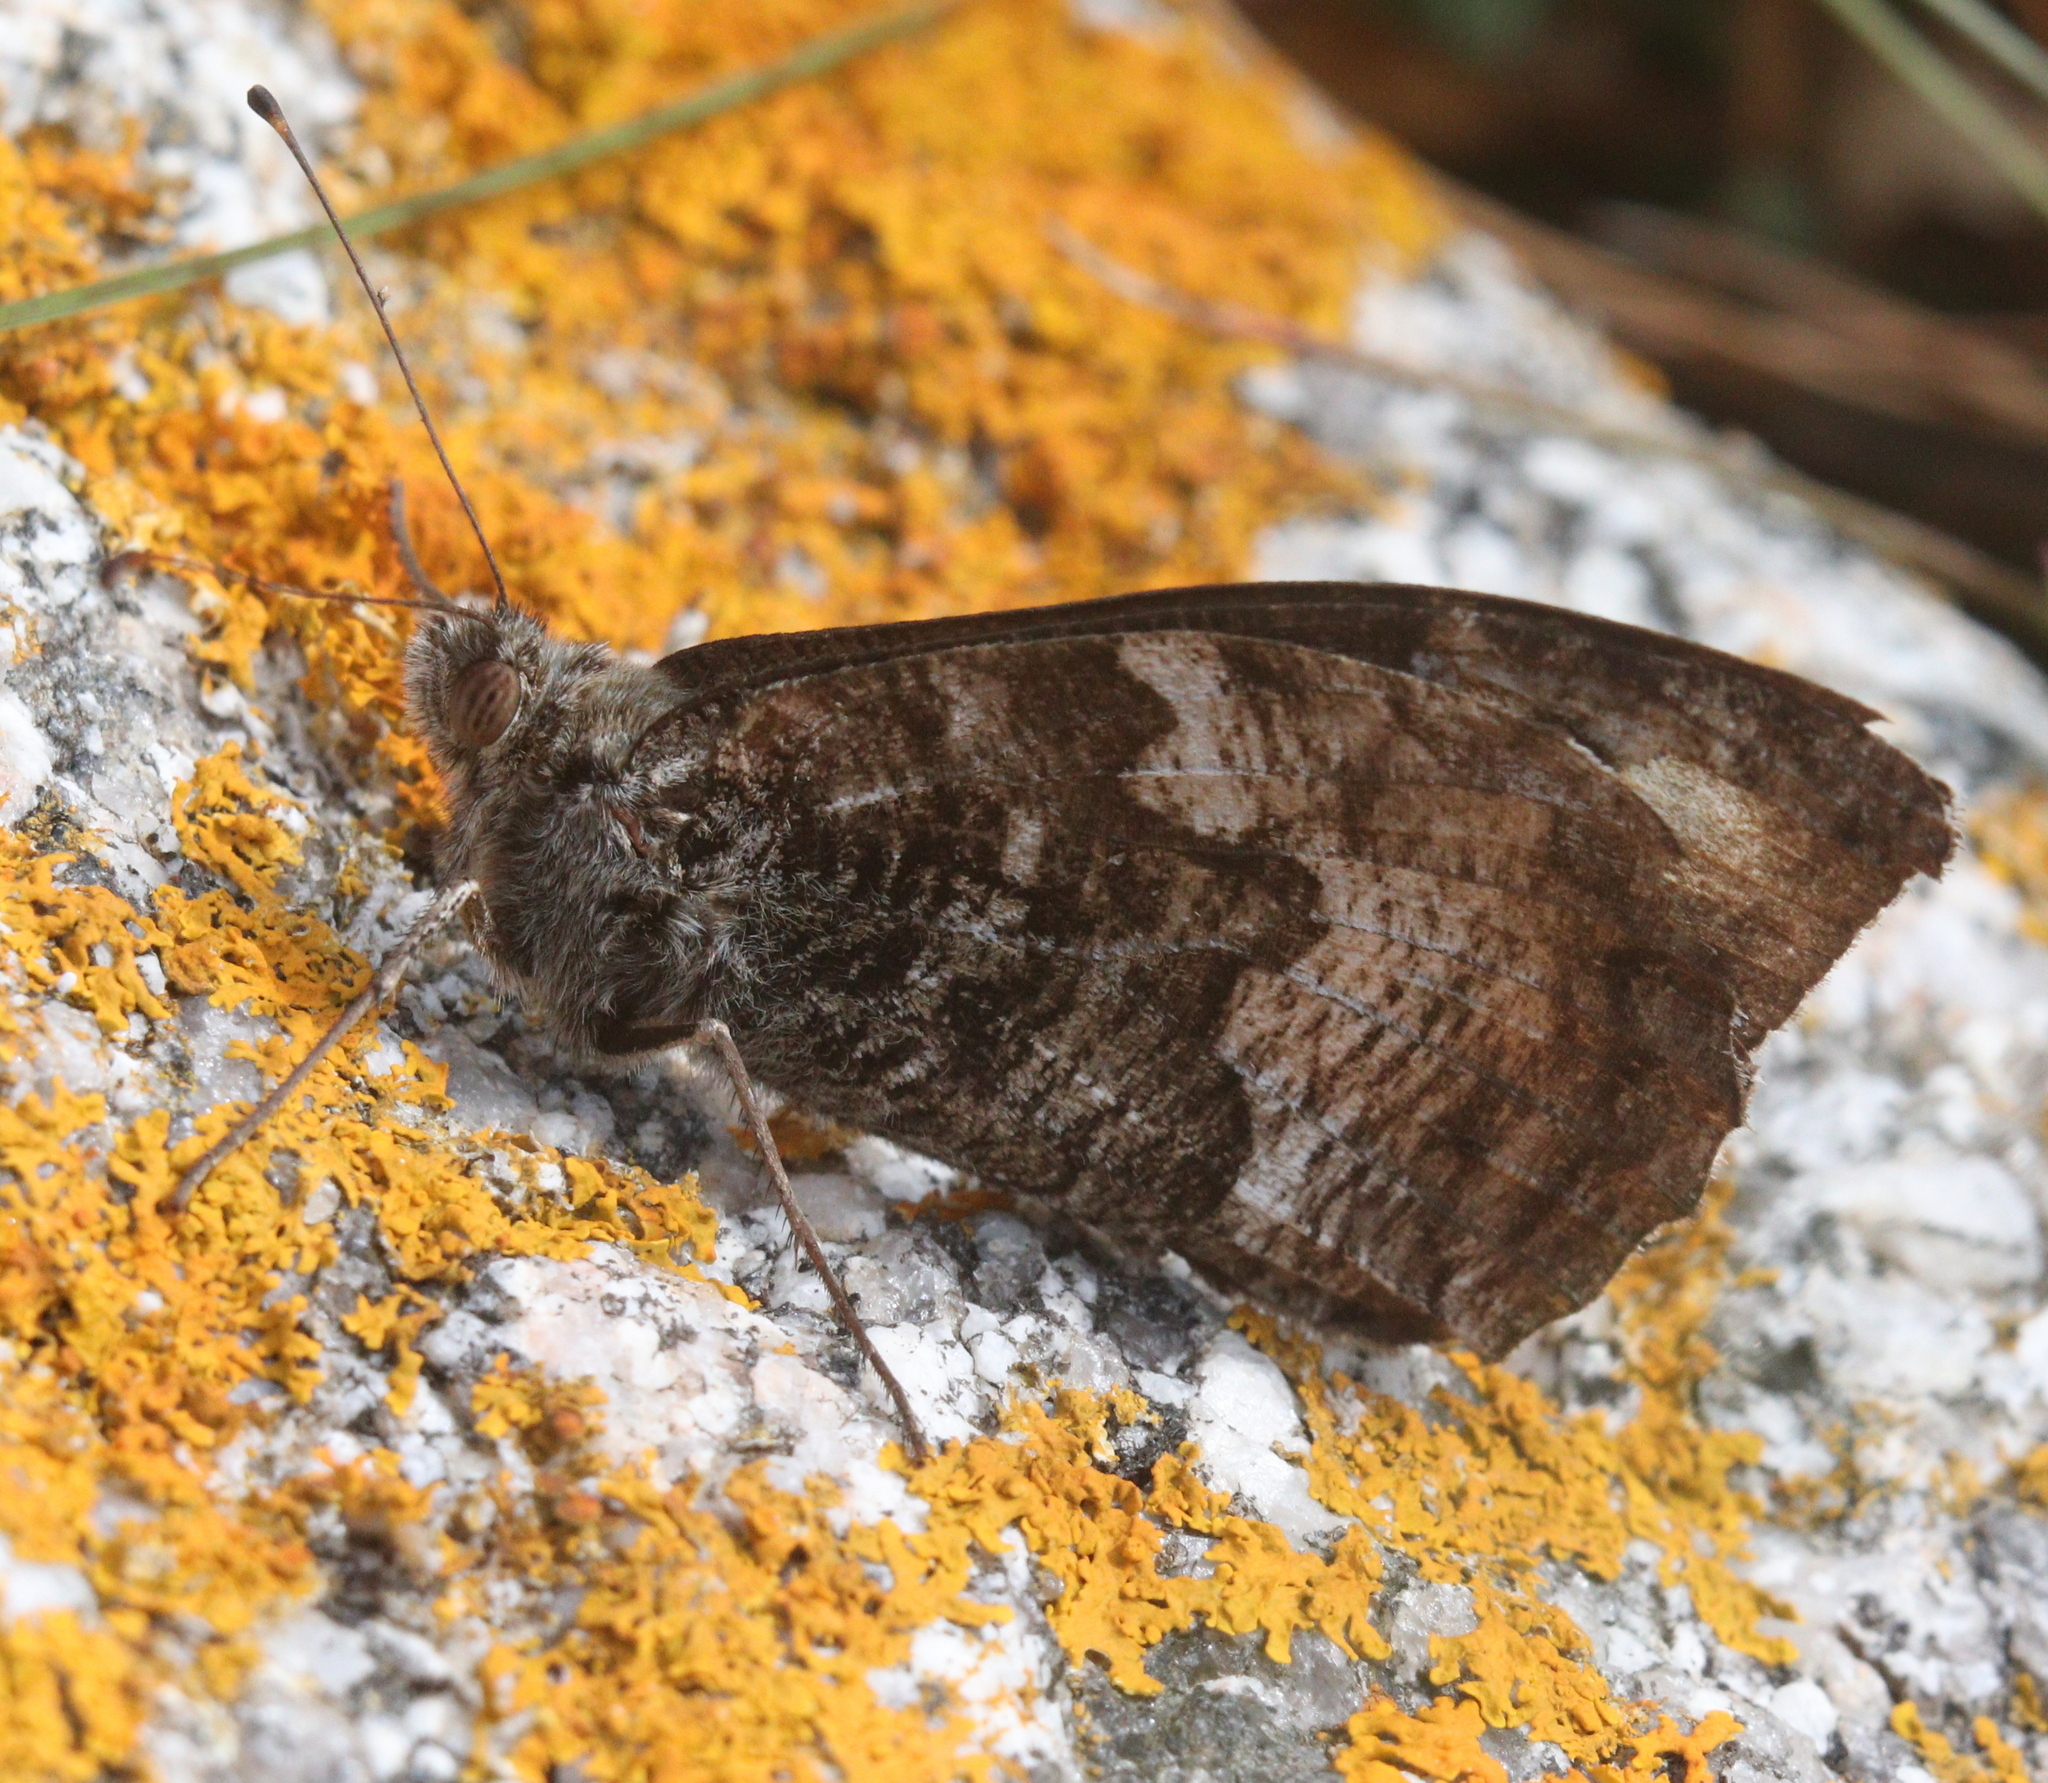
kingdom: Animalia
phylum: Arthropoda
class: Insecta
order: Lepidoptera
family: Nymphalidae
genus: Hipparchia
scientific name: Hipparchia semele
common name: Grayling
